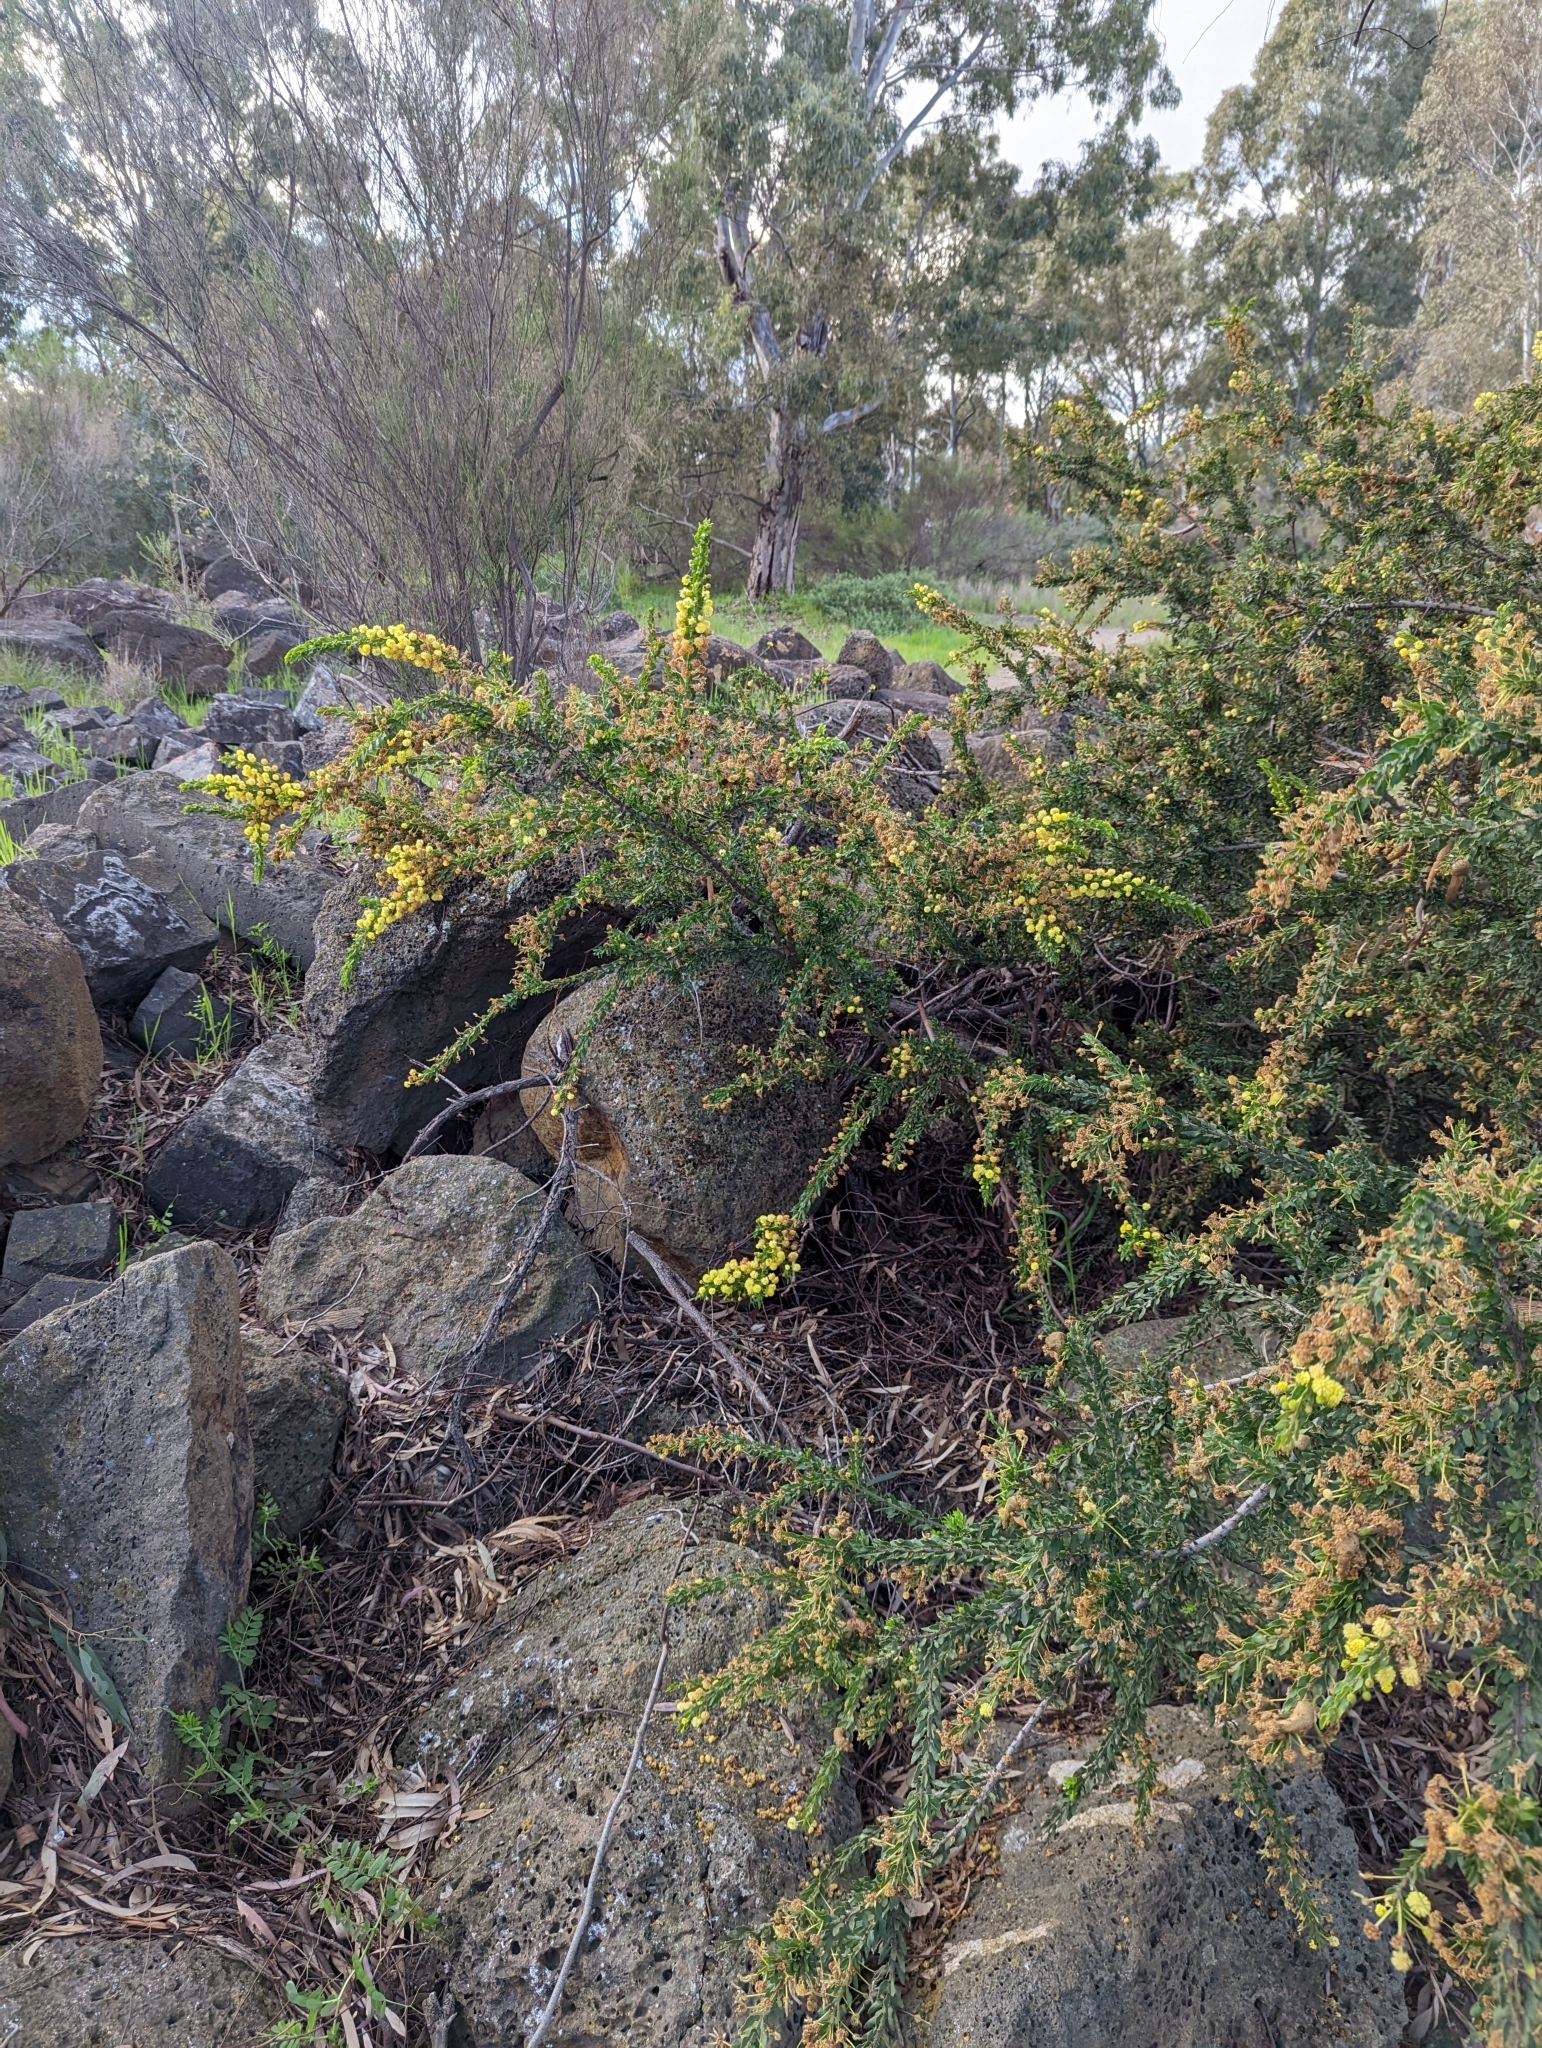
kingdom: Plantae
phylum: Tracheophyta
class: Magnoliopsida
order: Fabales
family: Fabaceae
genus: Acacia
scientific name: Acacia paradoxa
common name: Paradox acacia
